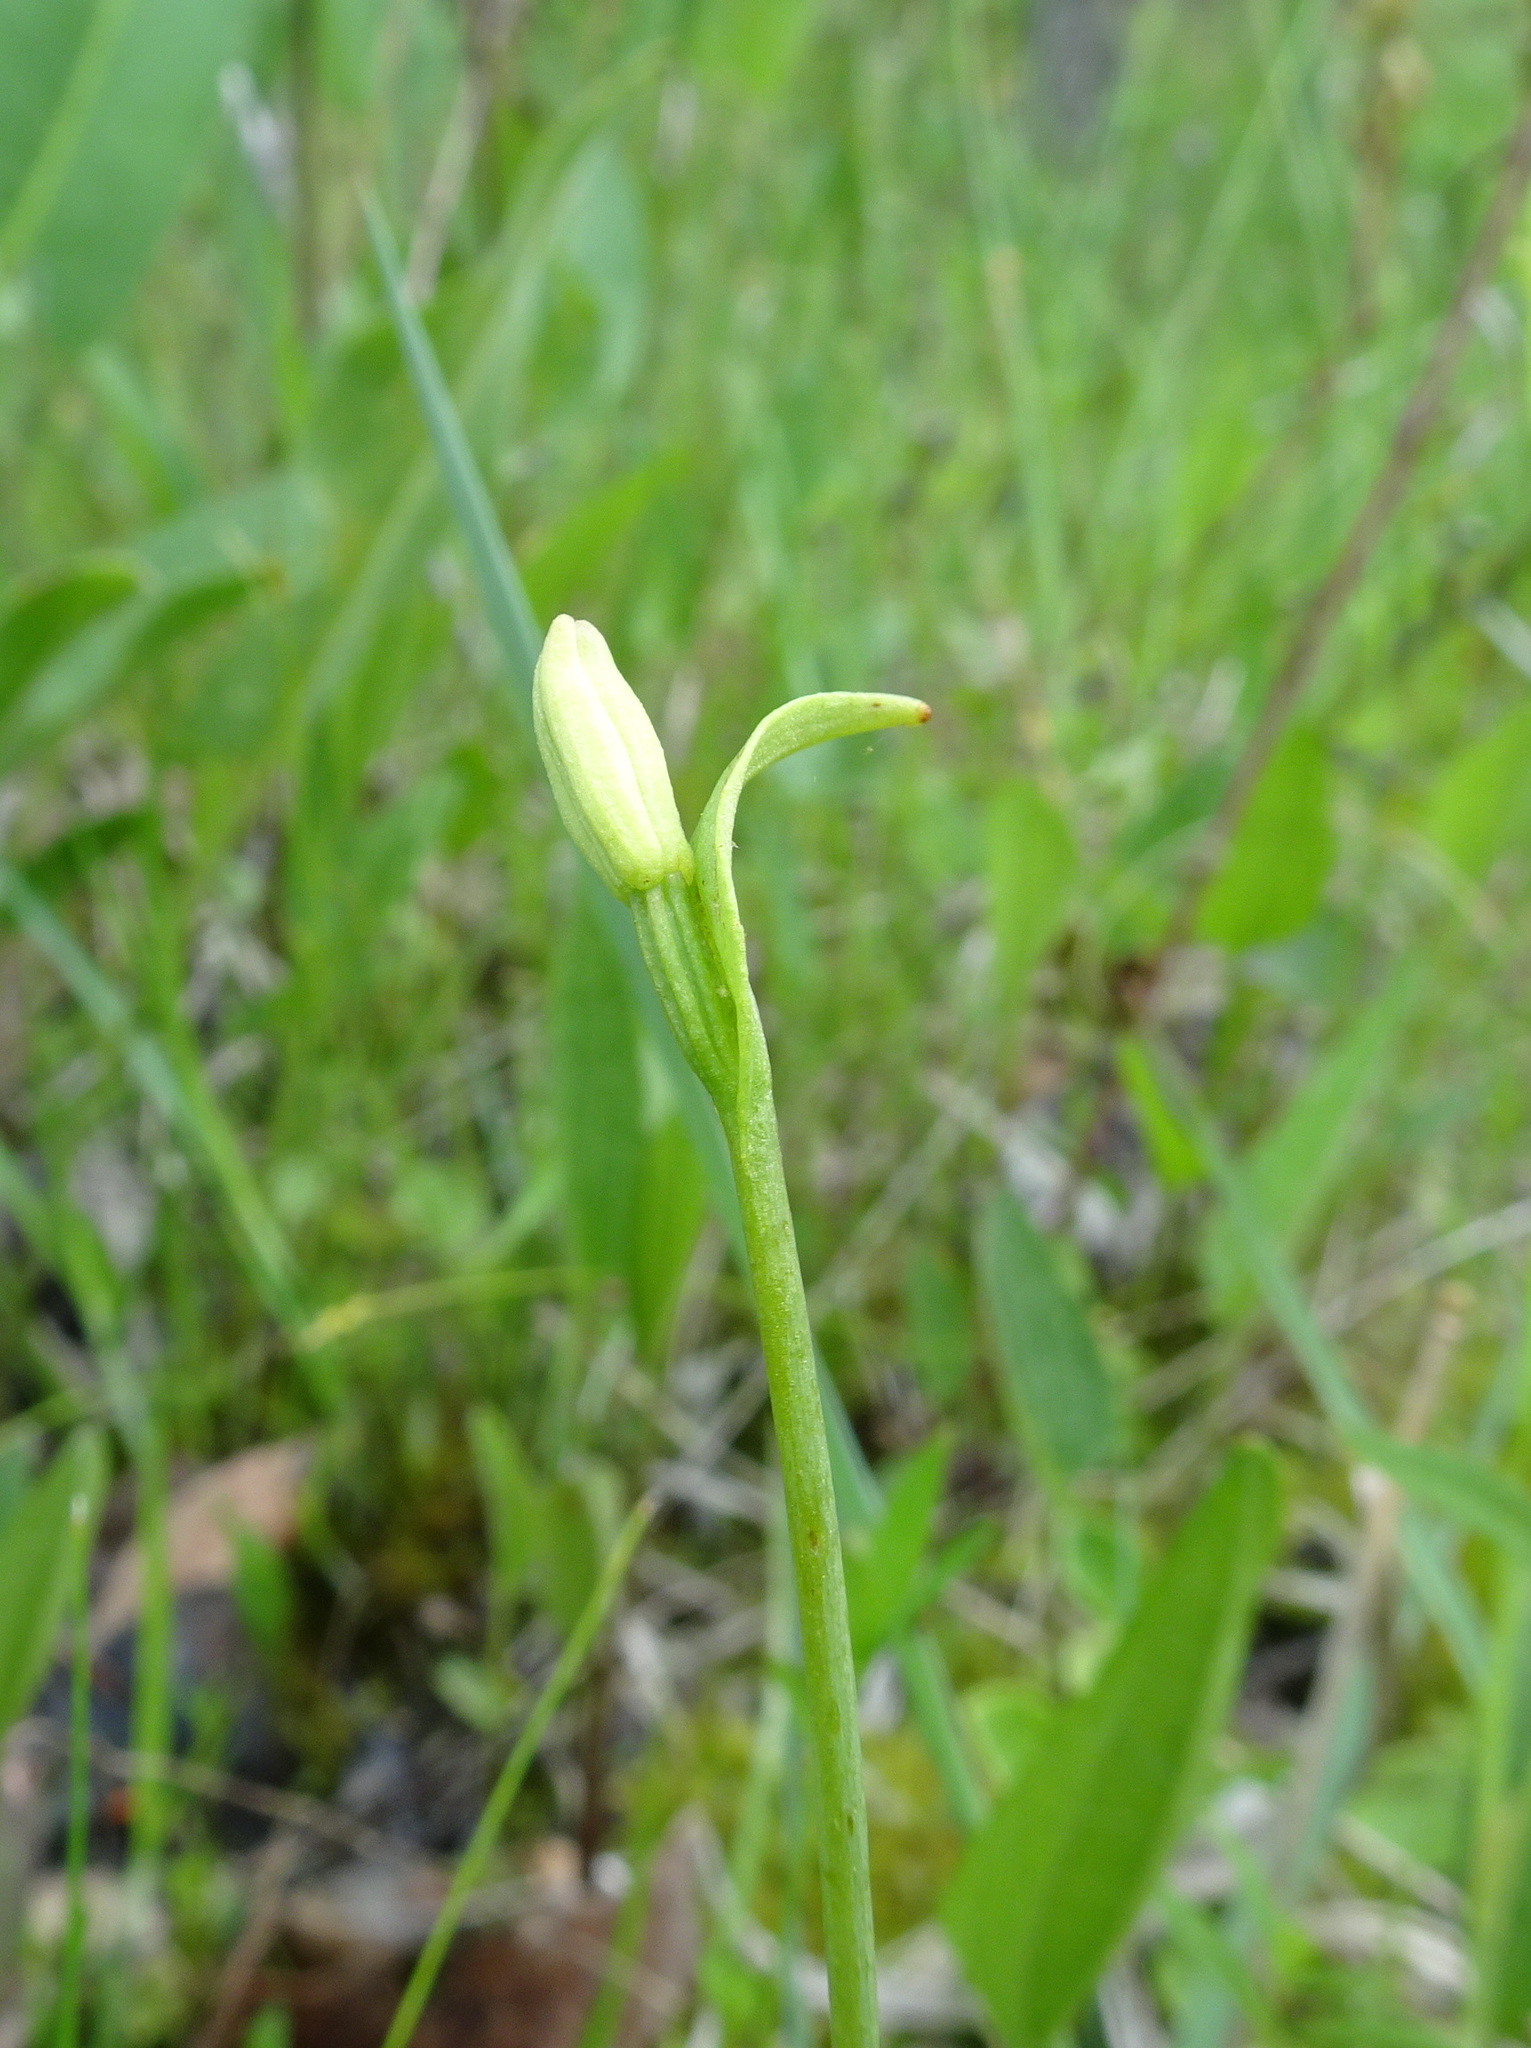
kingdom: Plantae
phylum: Tracheophyta
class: Liliopsida
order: Asparagales
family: Orchidaceae
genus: Pogonia
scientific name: Pogonia ophioglossoides
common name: Rose pogonia
